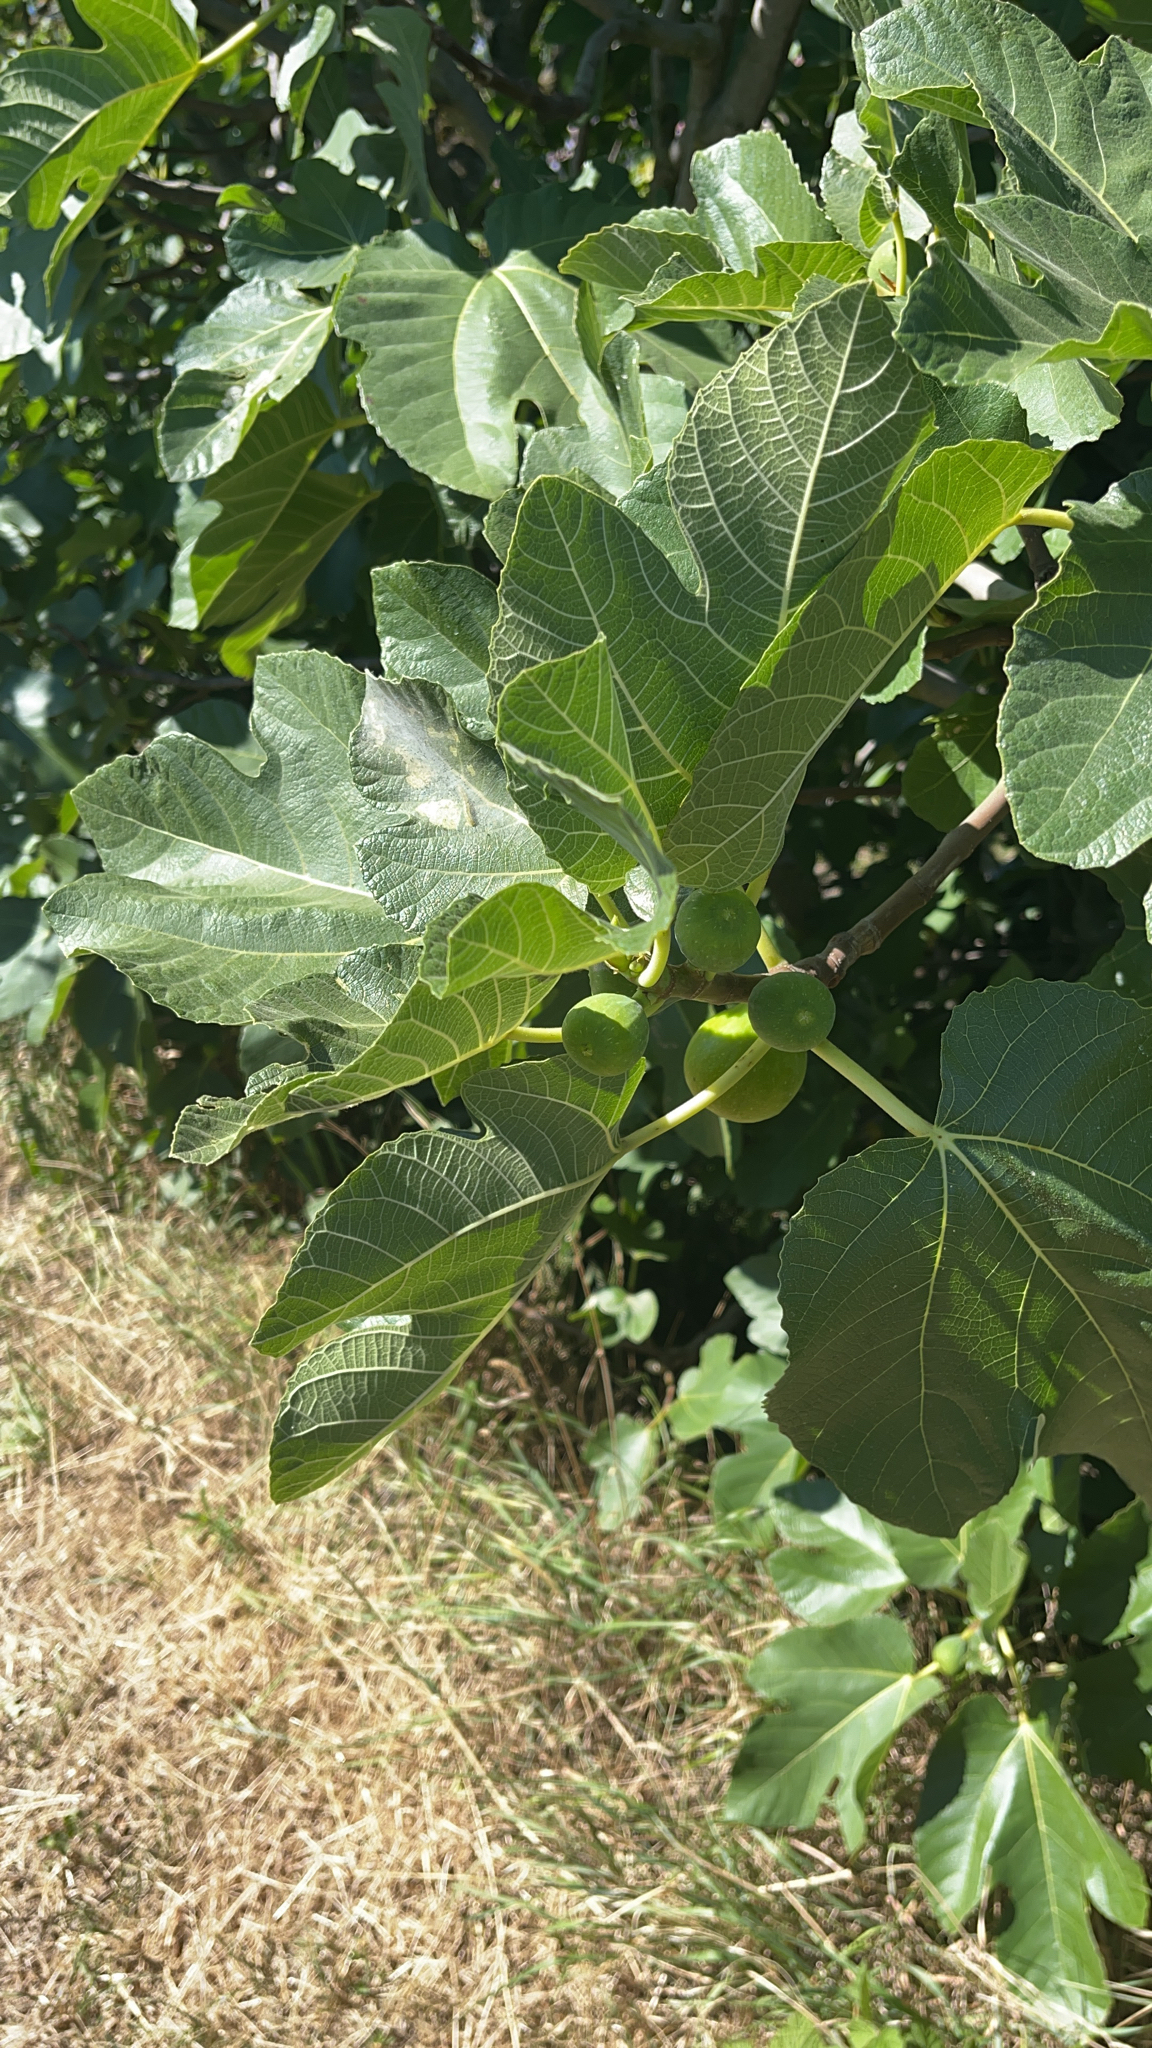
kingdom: Plantae
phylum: Tracheophyta
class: Magnoliopsida
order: Rosales
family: Moraceae
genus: Ficus
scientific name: Ficus carica
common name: Fig
